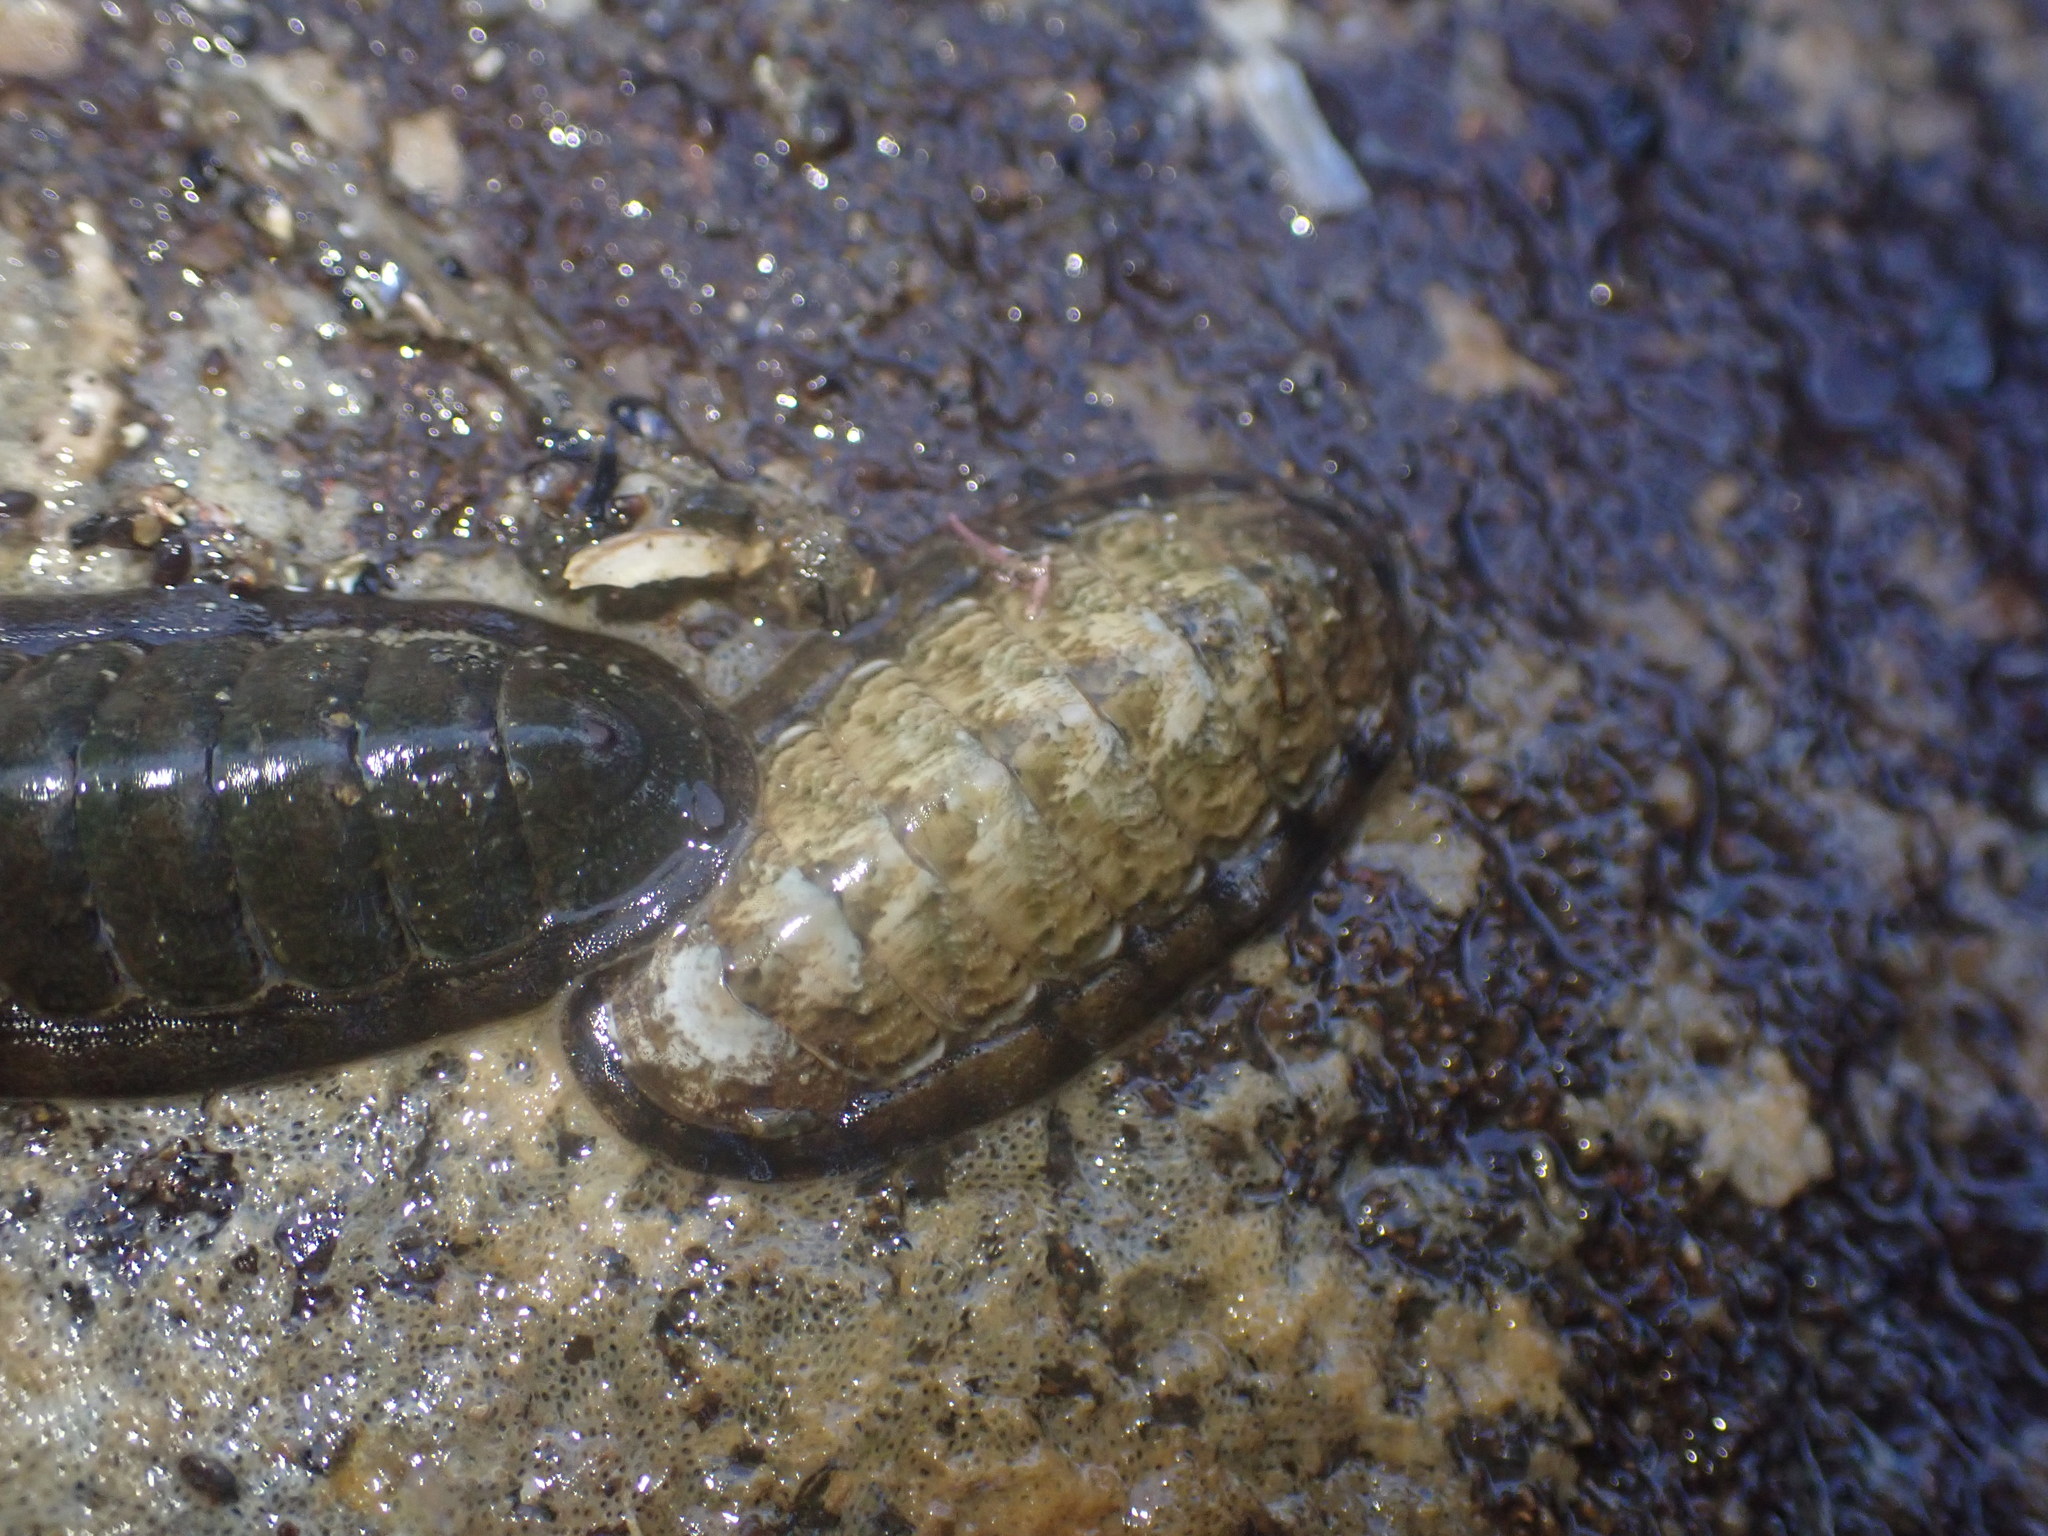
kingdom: Animalia
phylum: Mollusca
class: Polyplacophora
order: Chitonida
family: Ischnochitonidae
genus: Ischnochiton
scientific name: Ischnochiton maorianus
